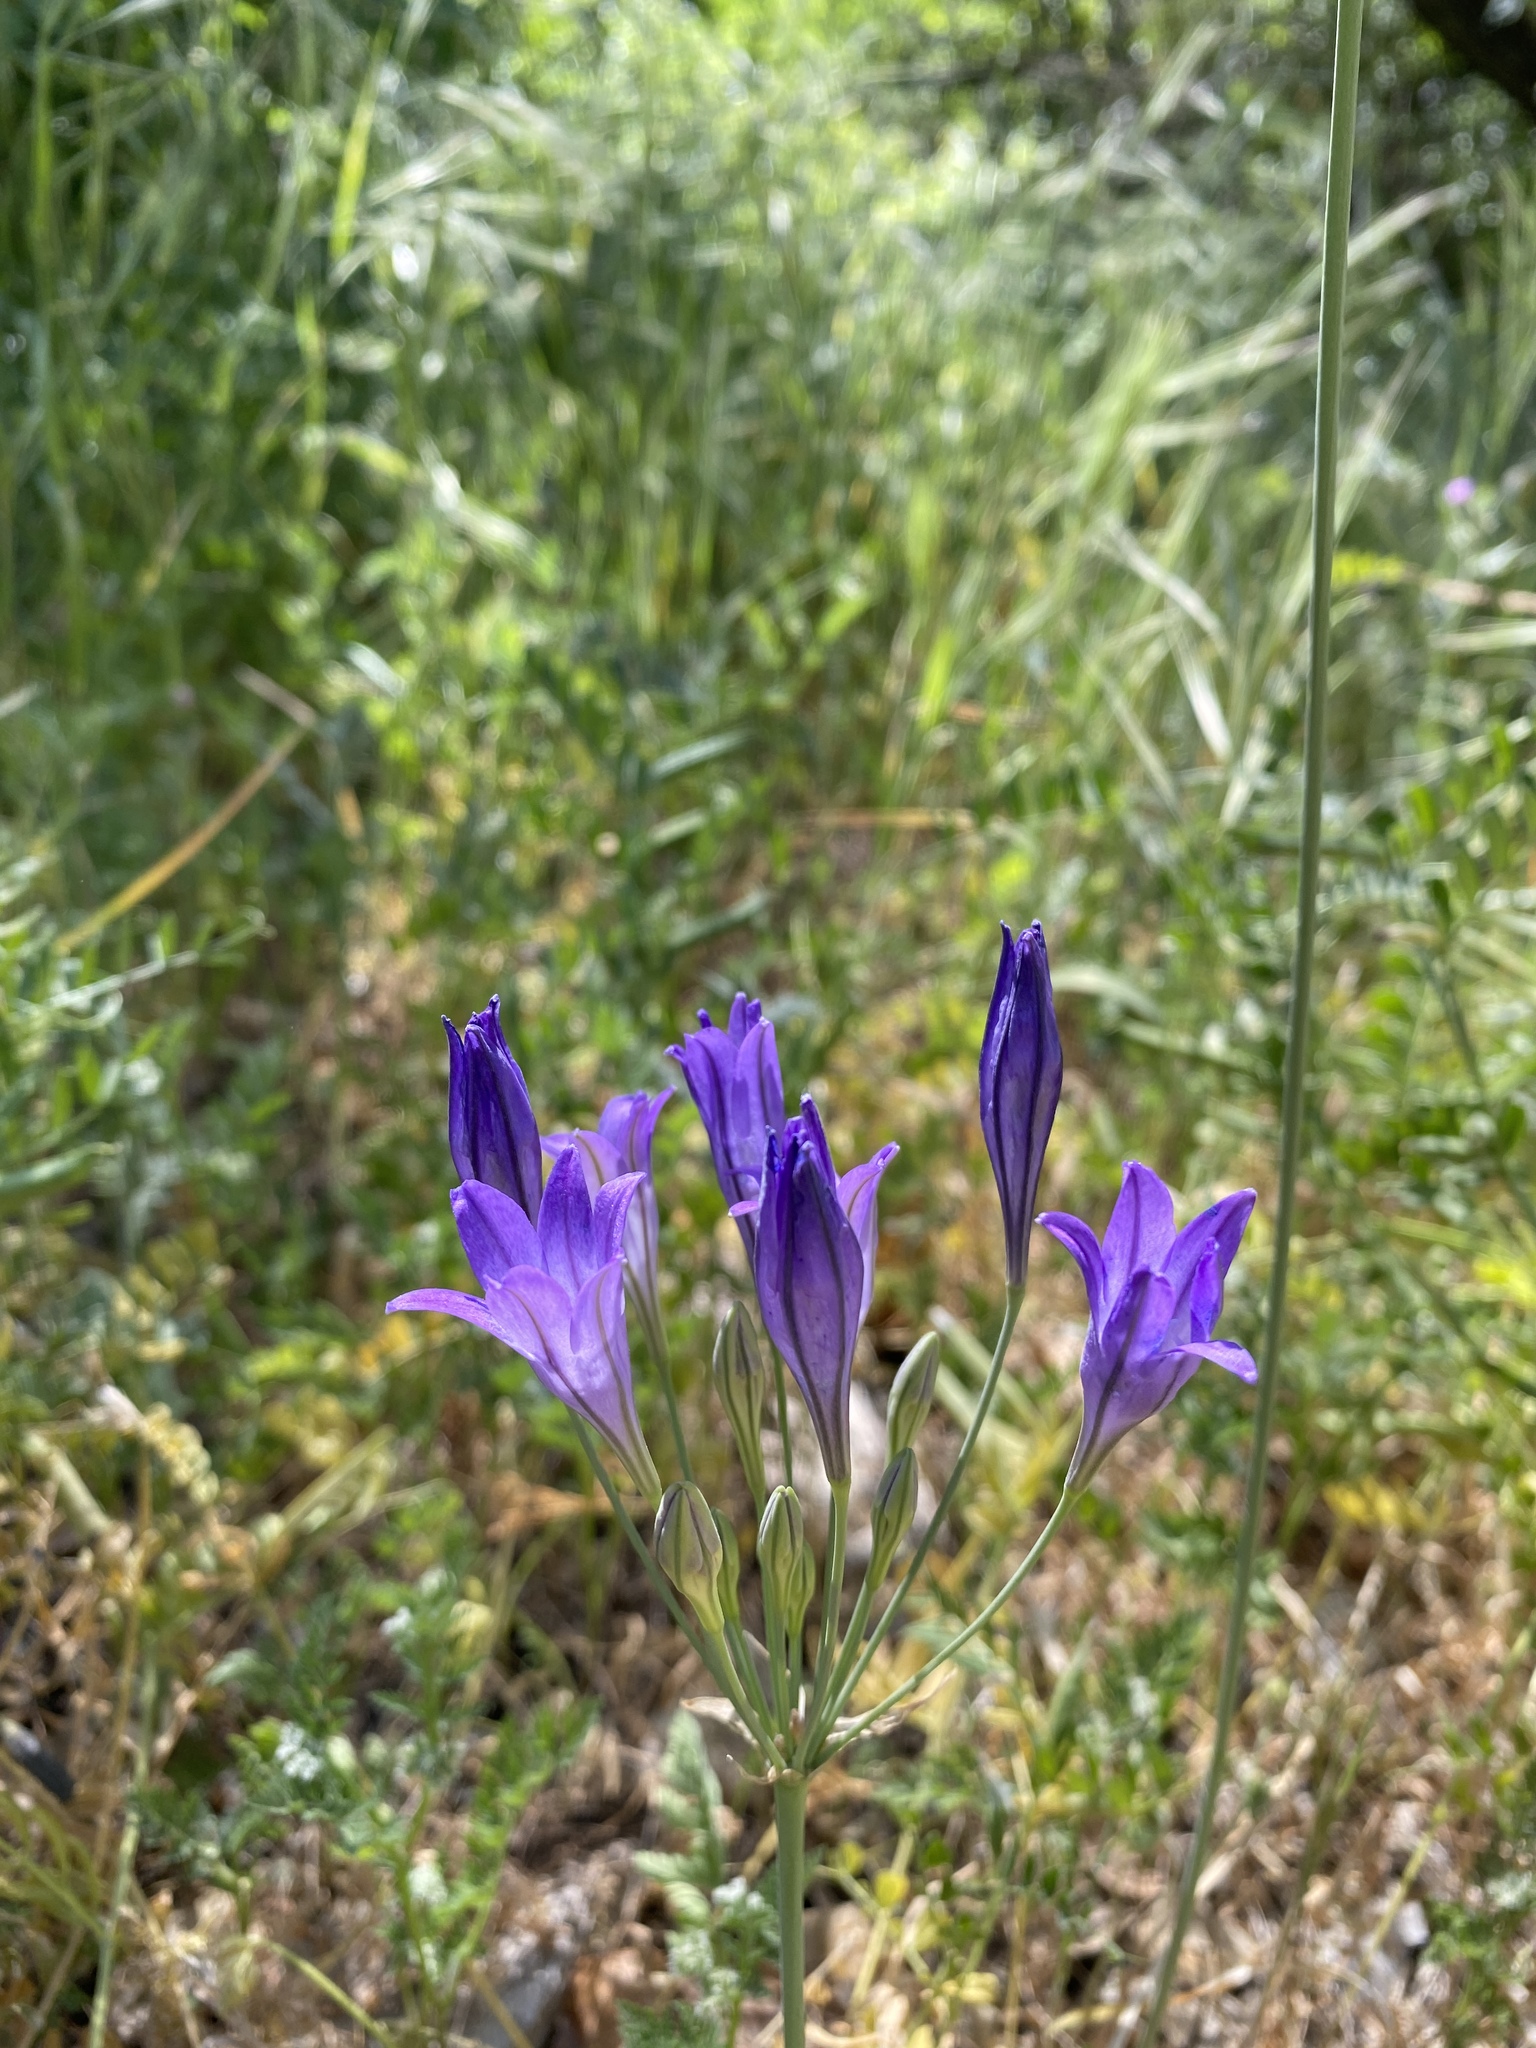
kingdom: Plantae
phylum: Tracheophyta
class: Liliopsida
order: Asparagales
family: Asparagaceae
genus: Triteleia
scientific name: Triteleia laxa
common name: Triplet-lily
